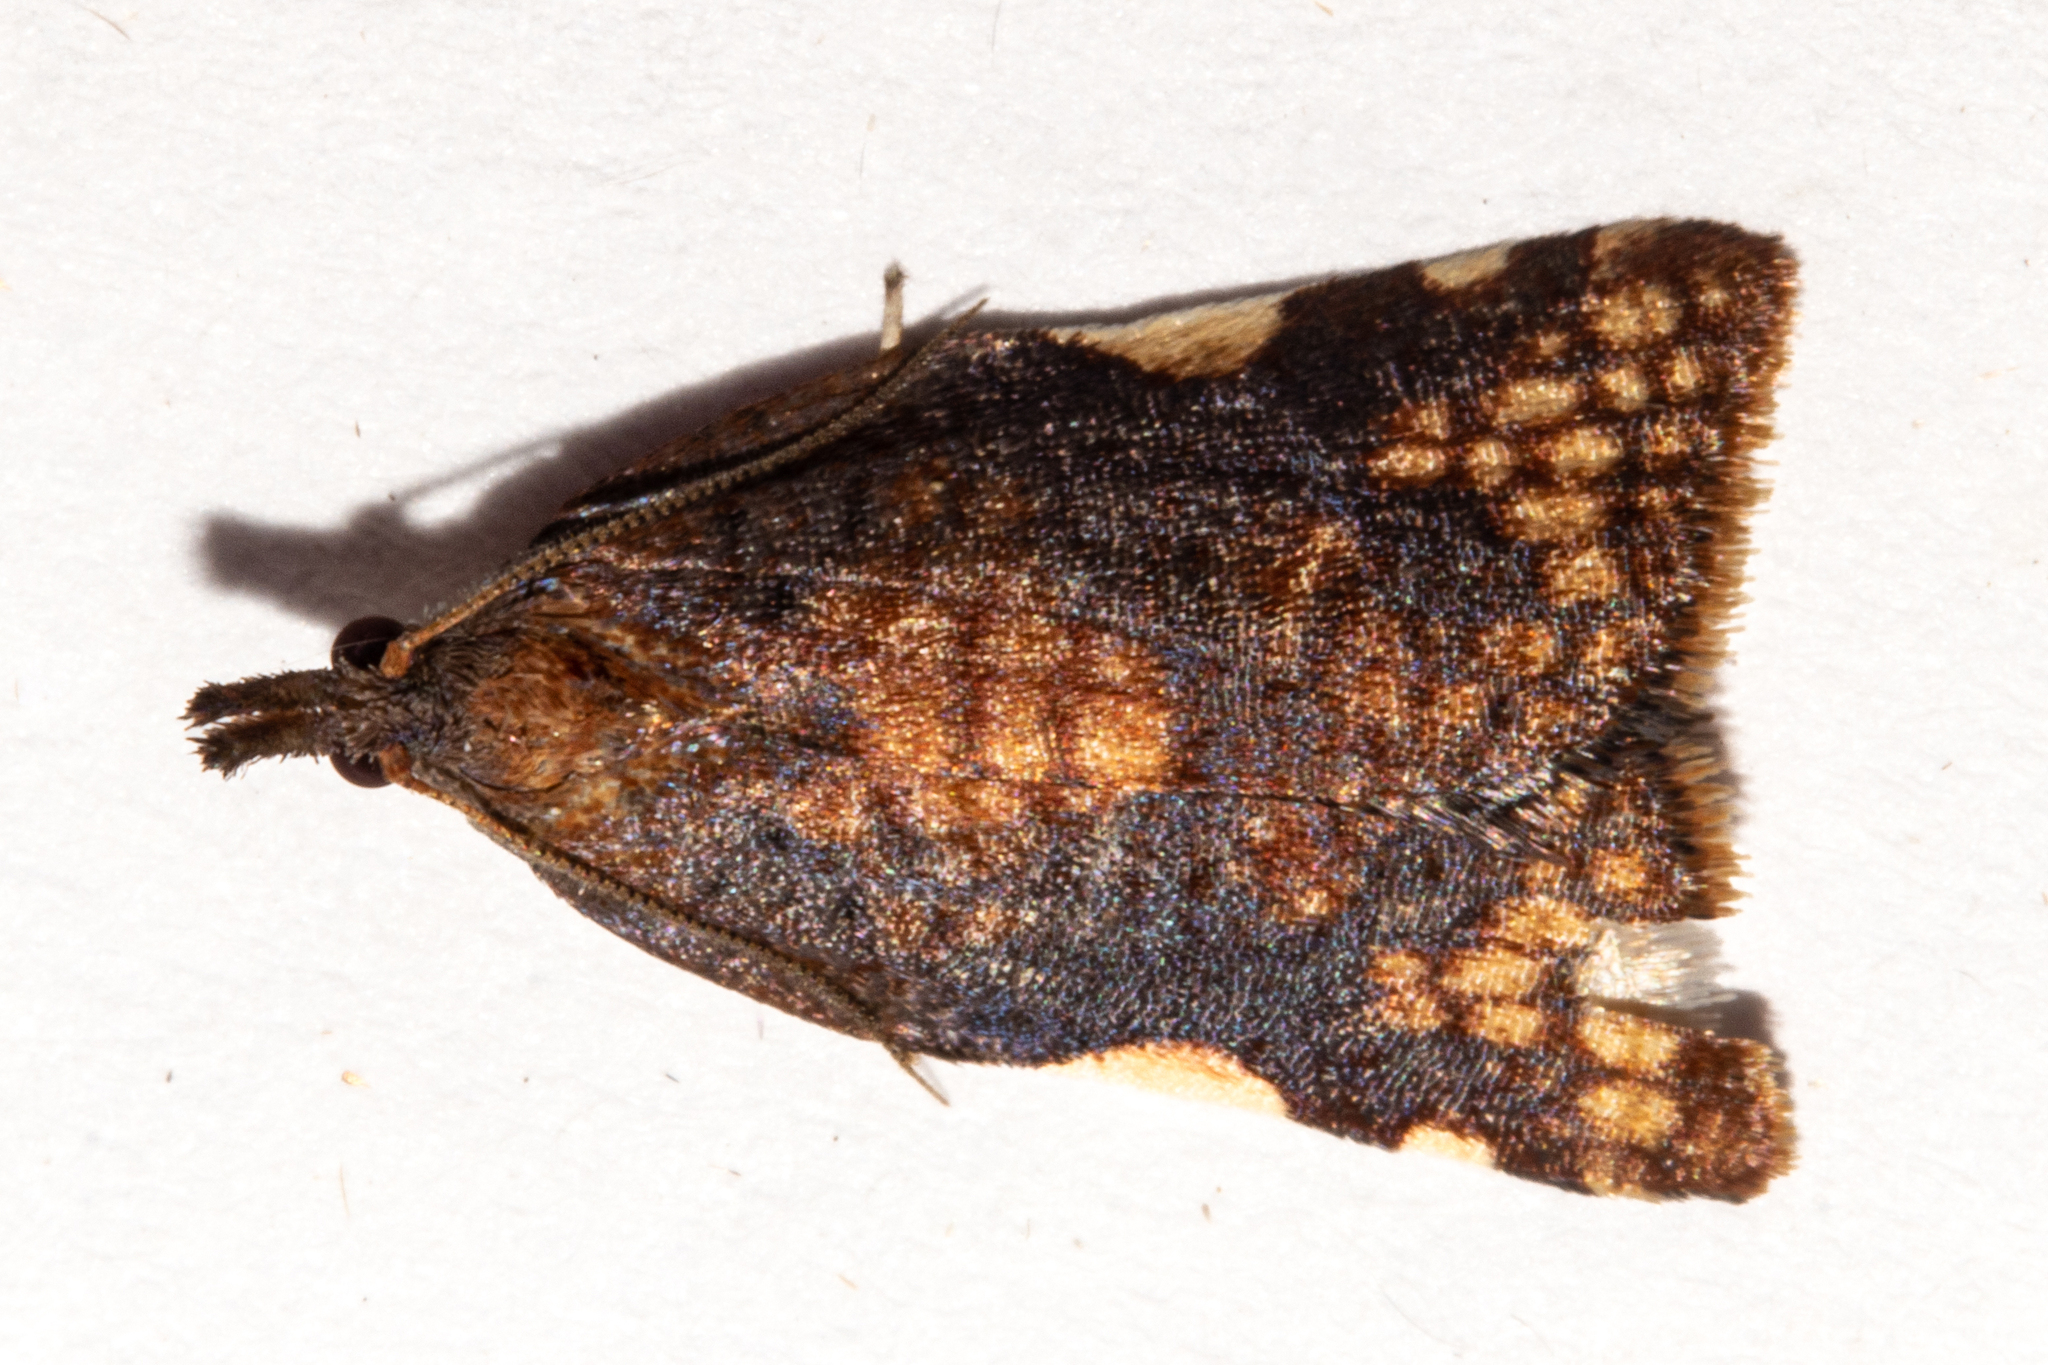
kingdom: Animalia
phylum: Arthropoda
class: Insecta
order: Lepidoptera
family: Tortricidae
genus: Catamacta
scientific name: Catamacta gavisana
